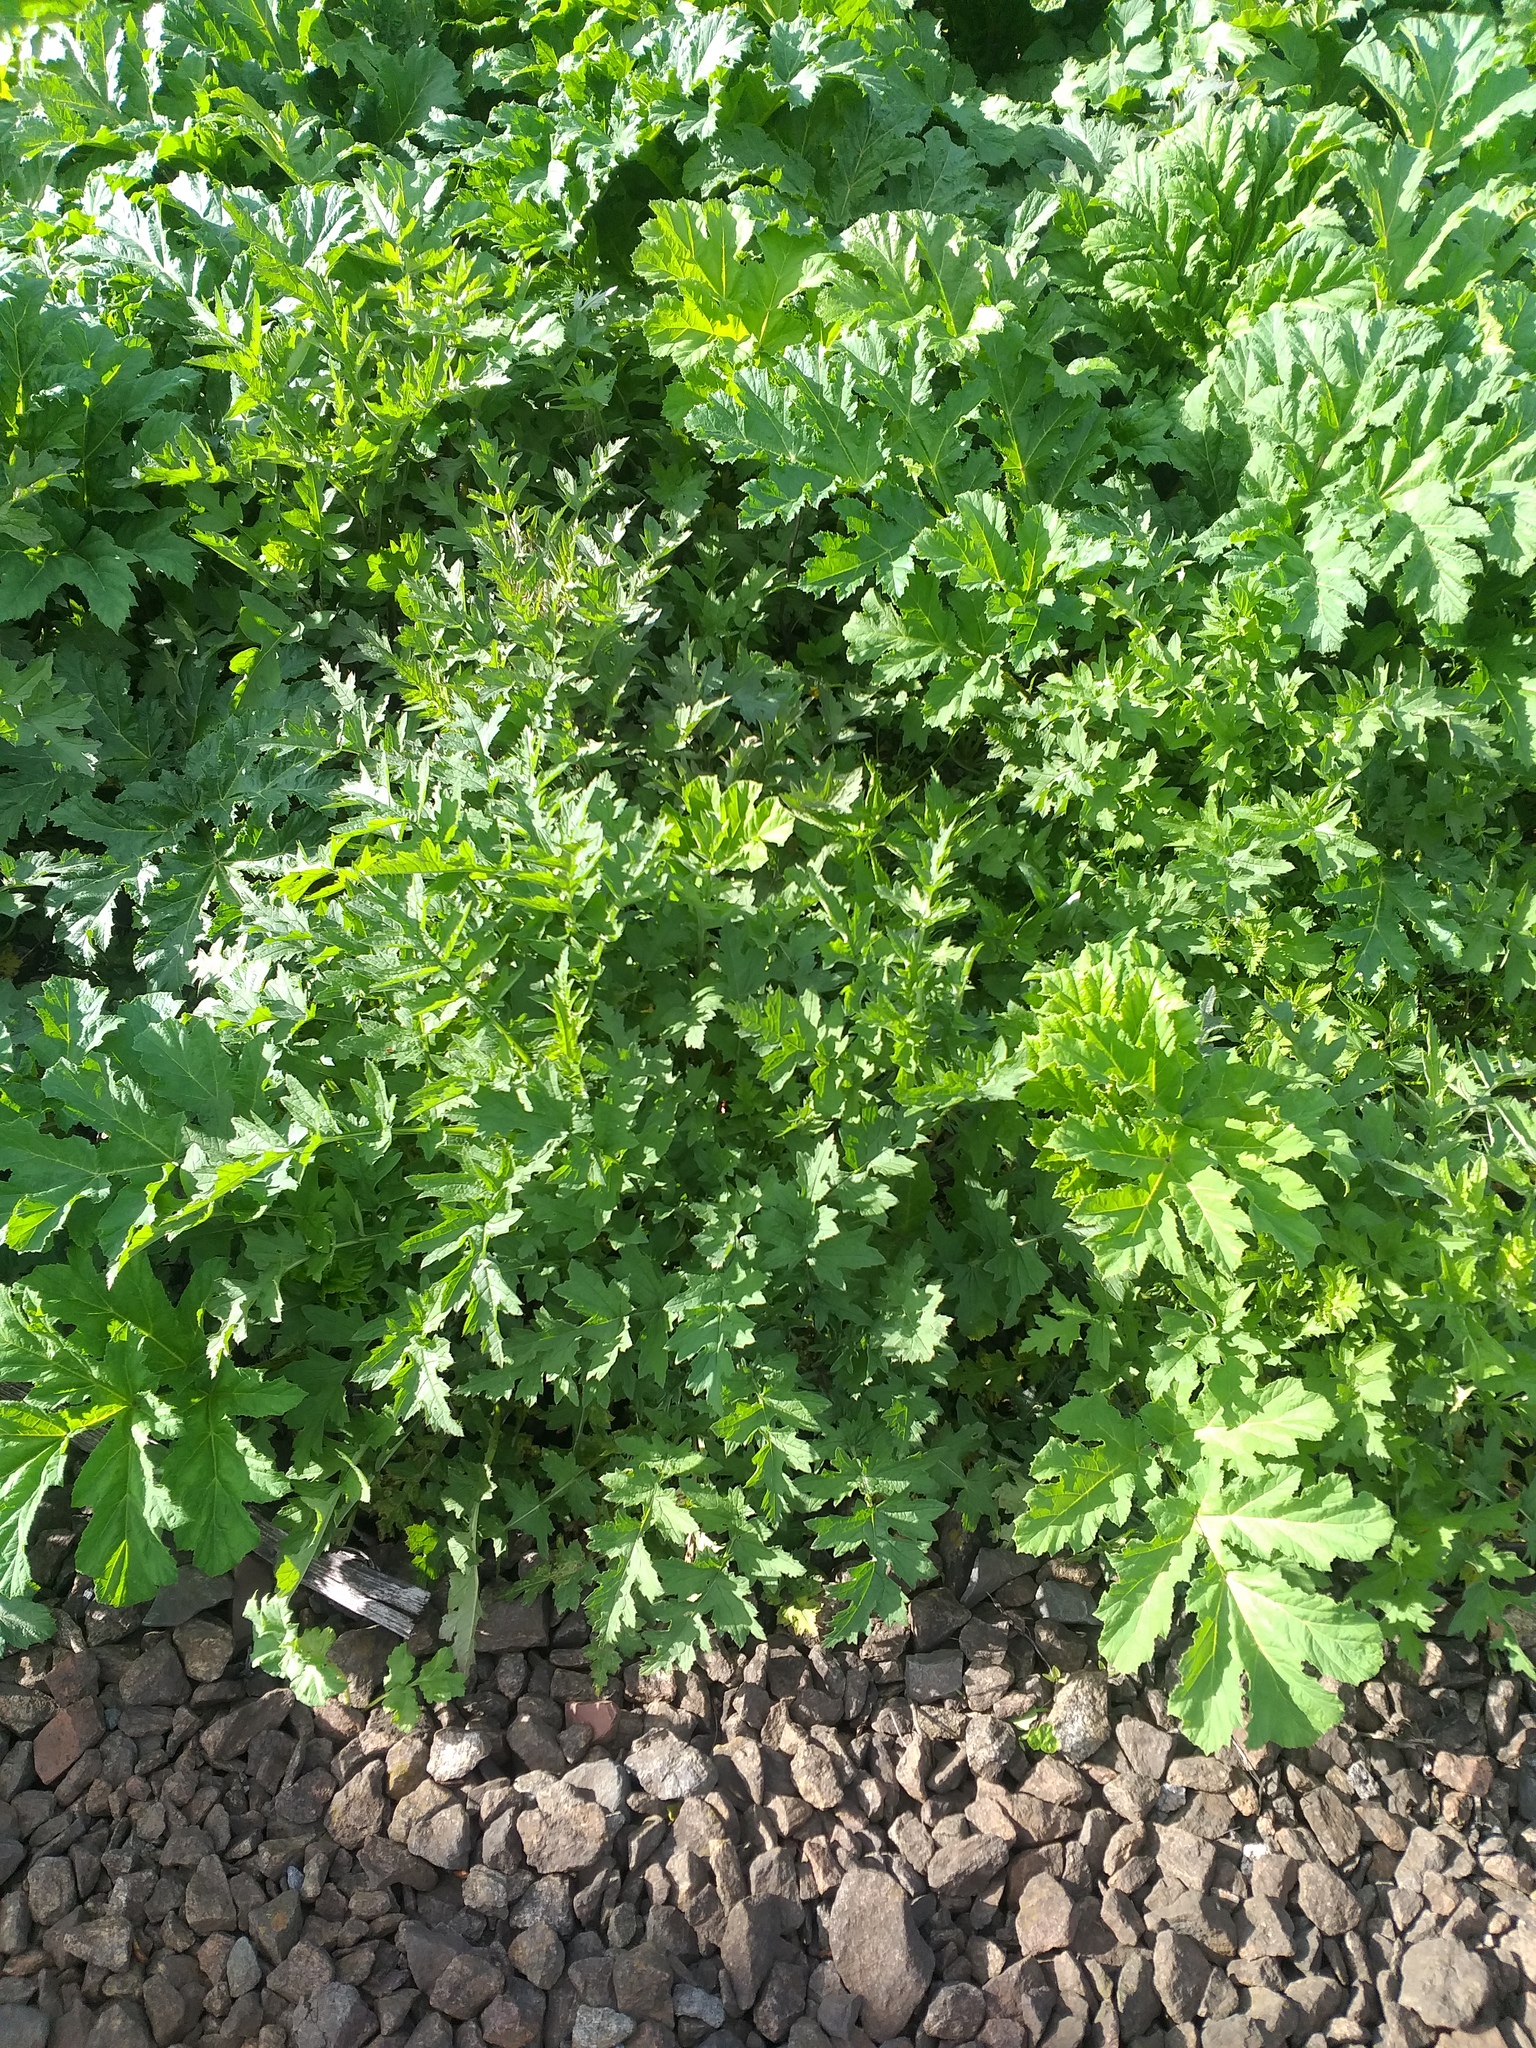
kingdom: Plantae
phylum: Tracheophyta
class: Magnoliopsida
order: Asterales
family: Asteraceae
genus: Carduus
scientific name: Carduus crispus
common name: Welted thistle
